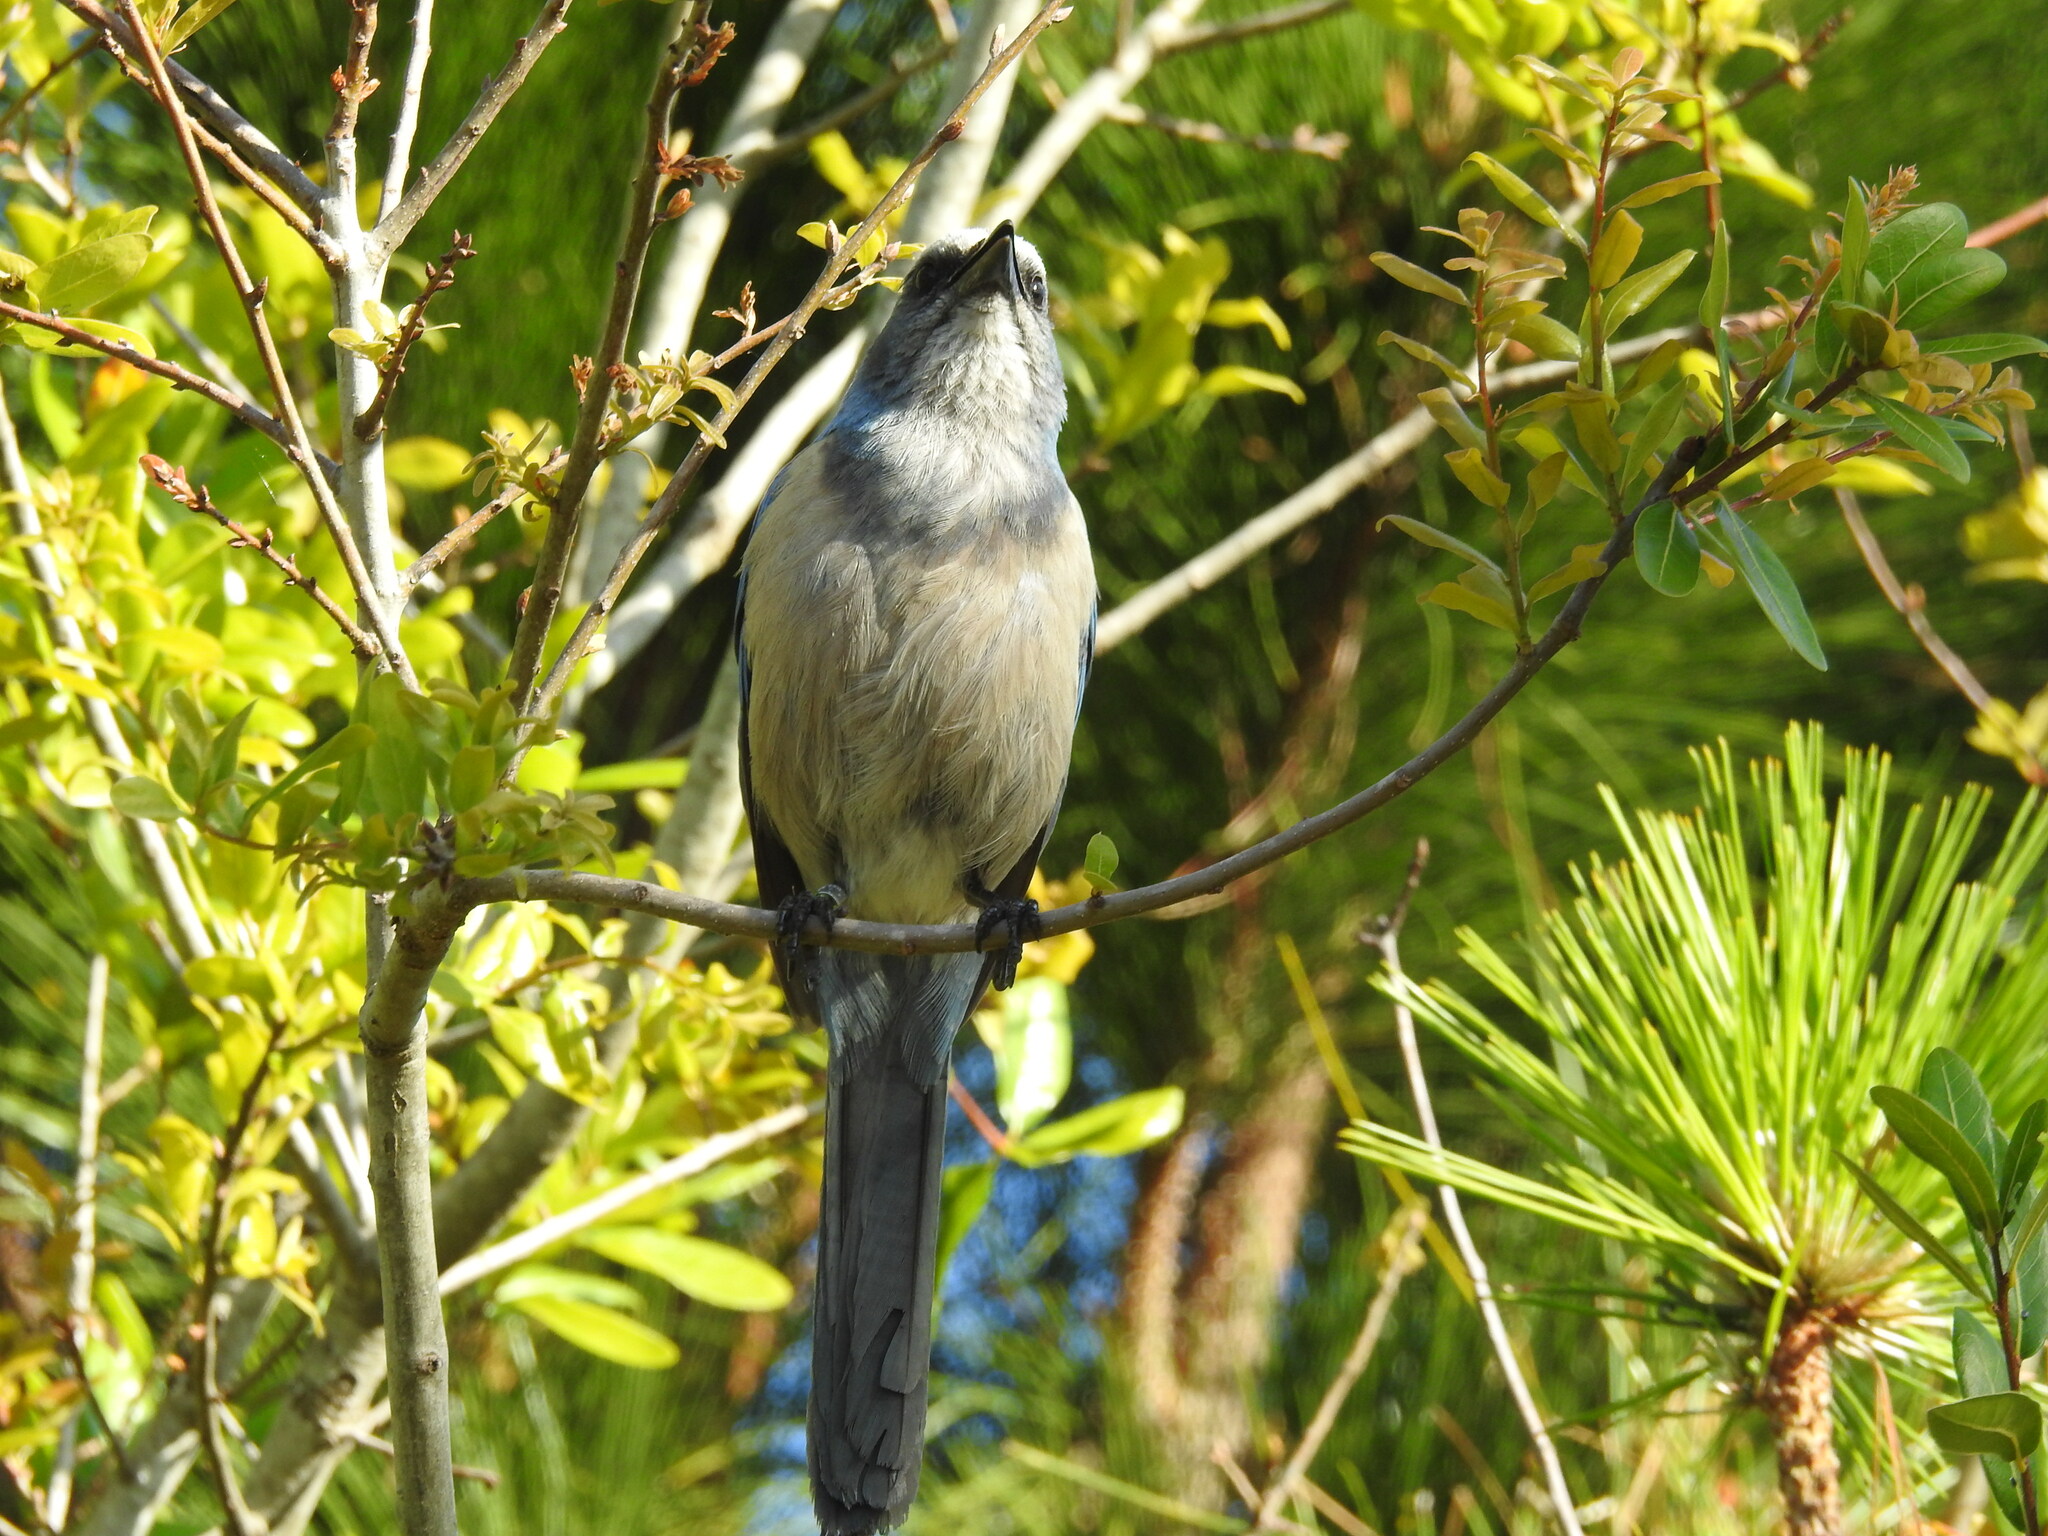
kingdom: Animalia
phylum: Chordata
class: Aves
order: Passeriformes
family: Corvidae
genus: Aphelocoma
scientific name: Aphelocoma coerulescens
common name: Florida scrub jay
